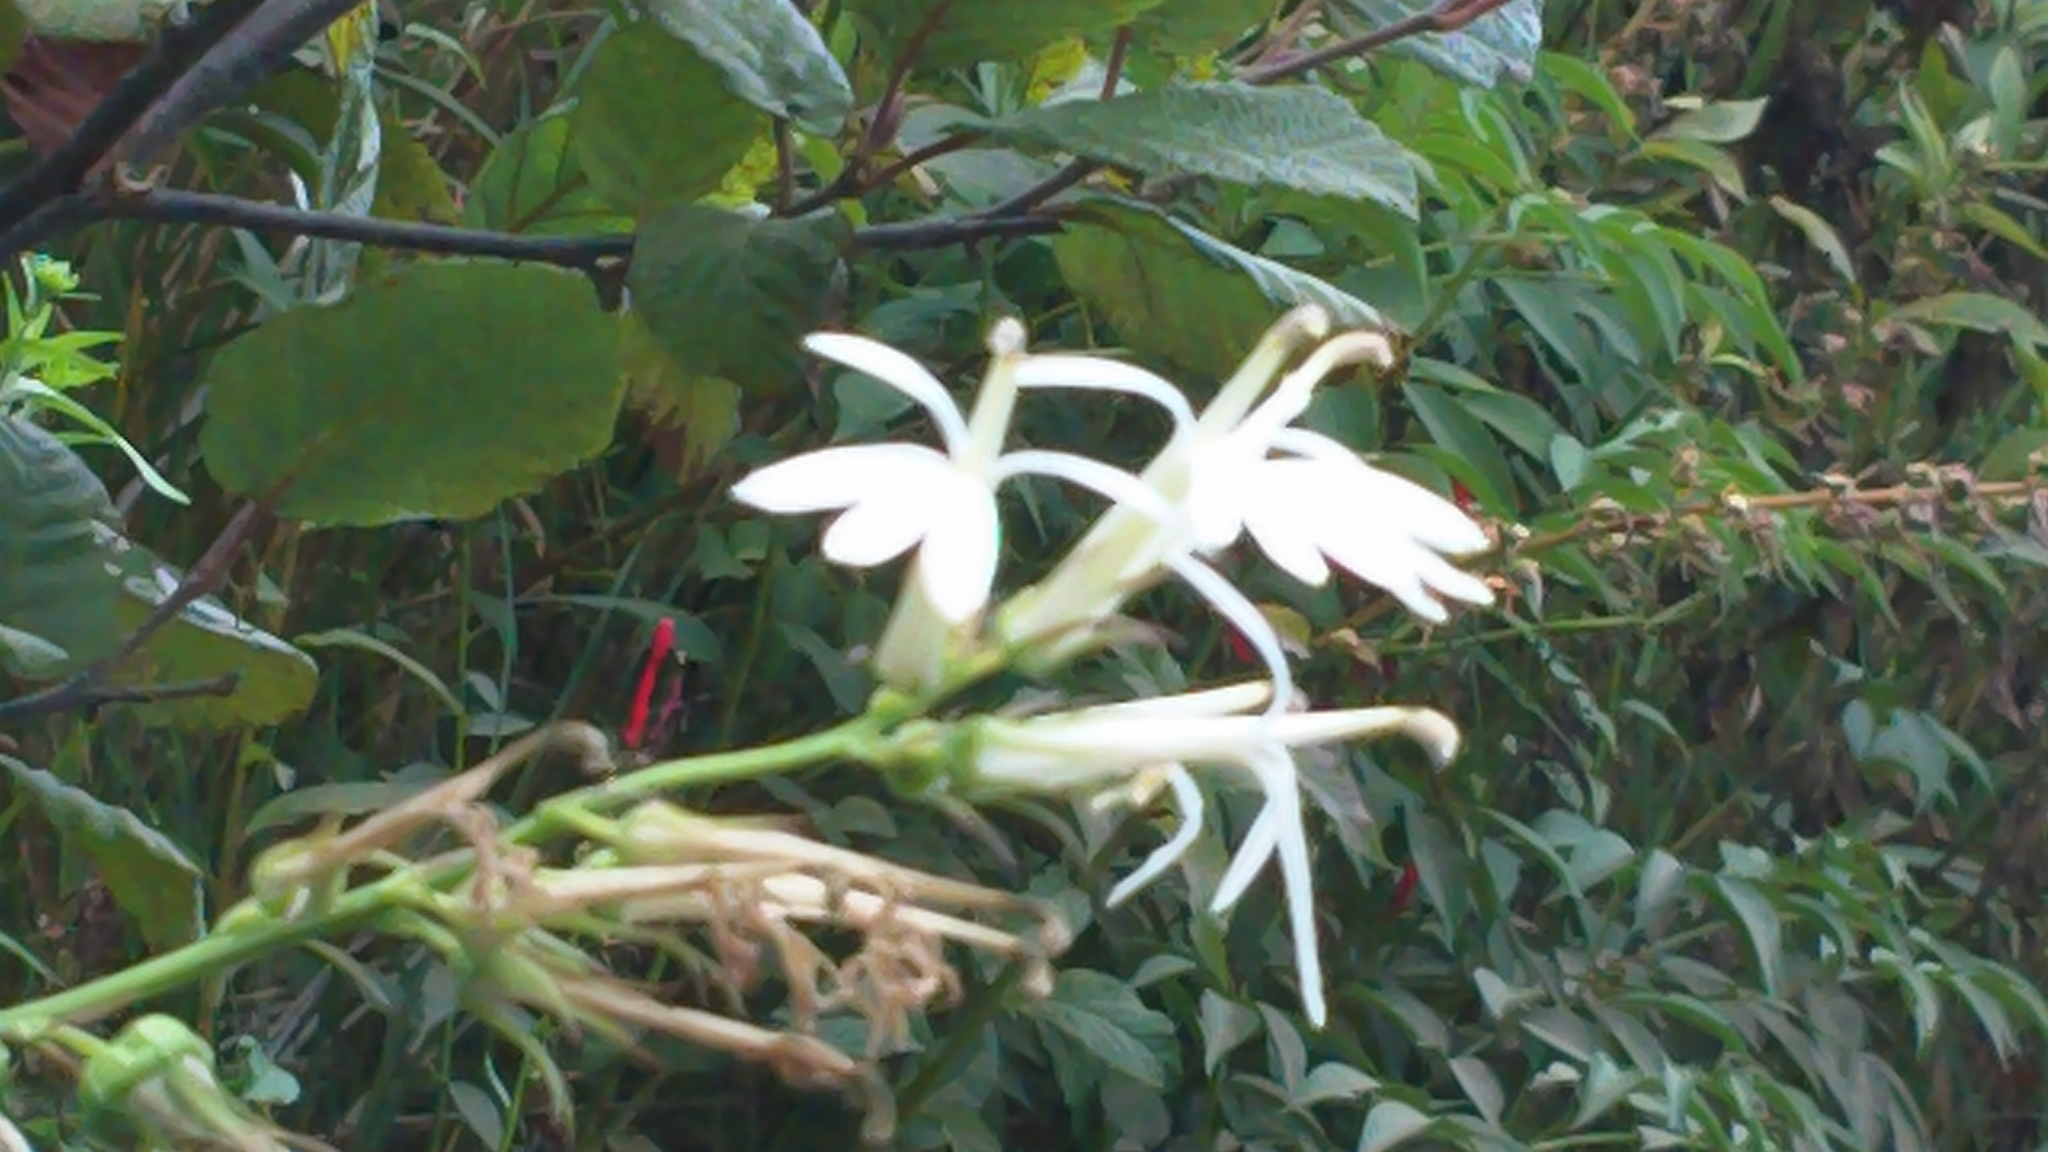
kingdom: Plantae
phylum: Tracheophyta
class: Magnoliopsida
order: Asterales
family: Campanulaceae
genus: Lobelia
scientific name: Lobelia cardinalis
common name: Cardinal flower
